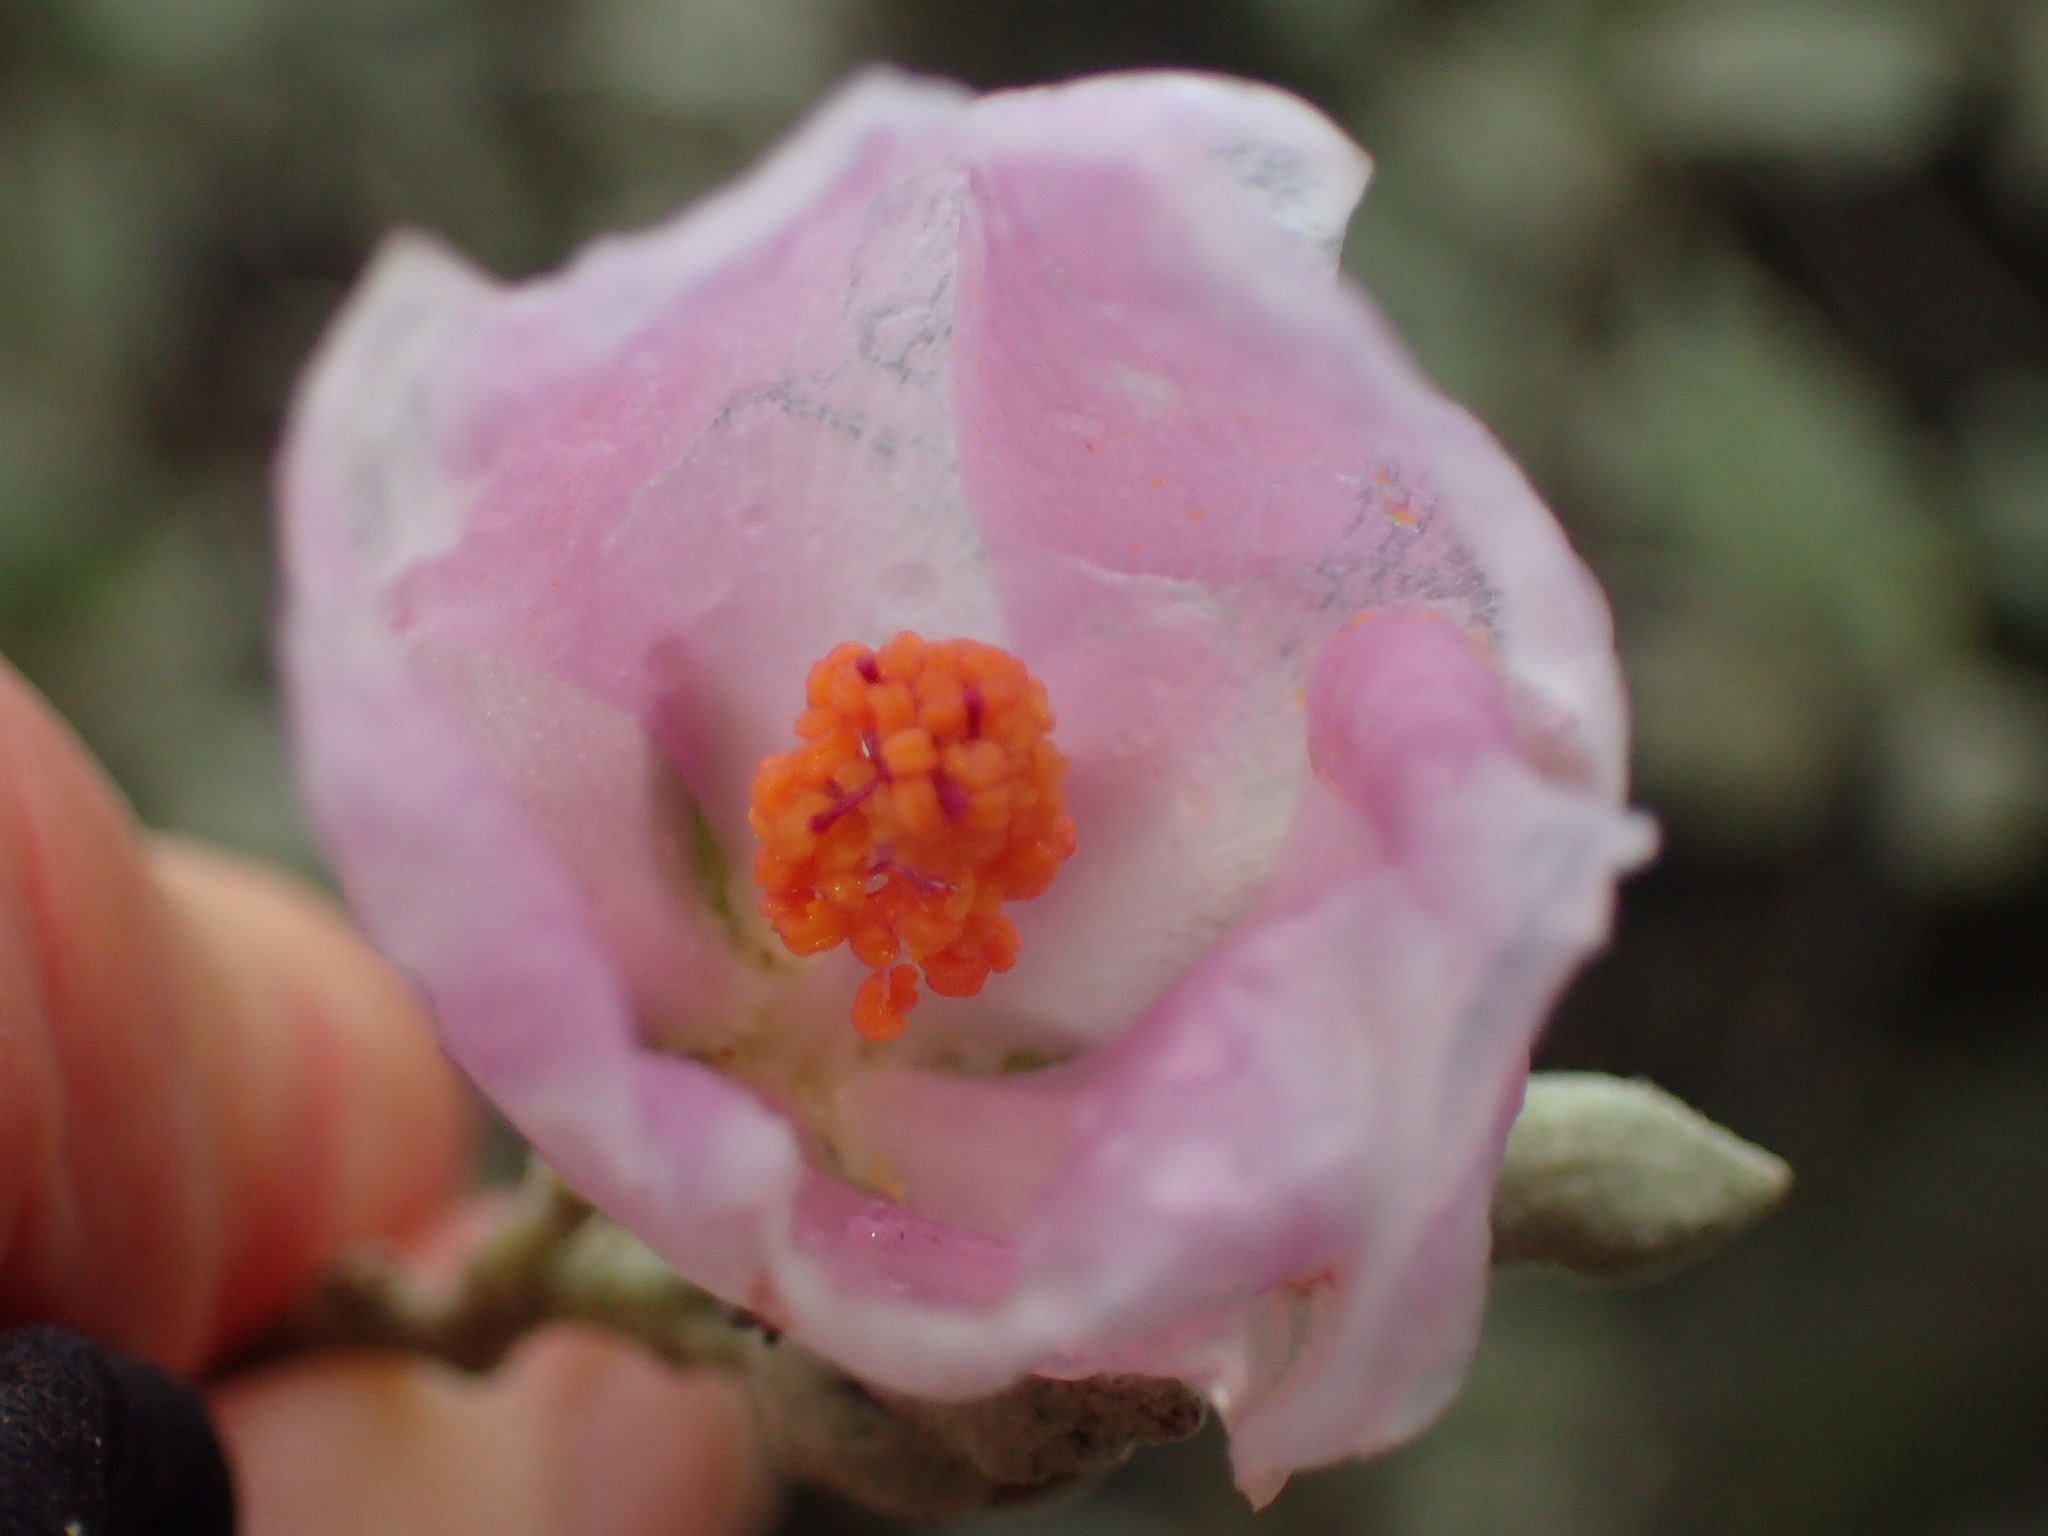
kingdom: Plantae
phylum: Tracheophyta
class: Magnoliopsida
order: Malvales
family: Malvaceae
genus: Malacothamnus
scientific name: Malacothamnus fasciculatus
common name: Sant cruz island bush-mallow
